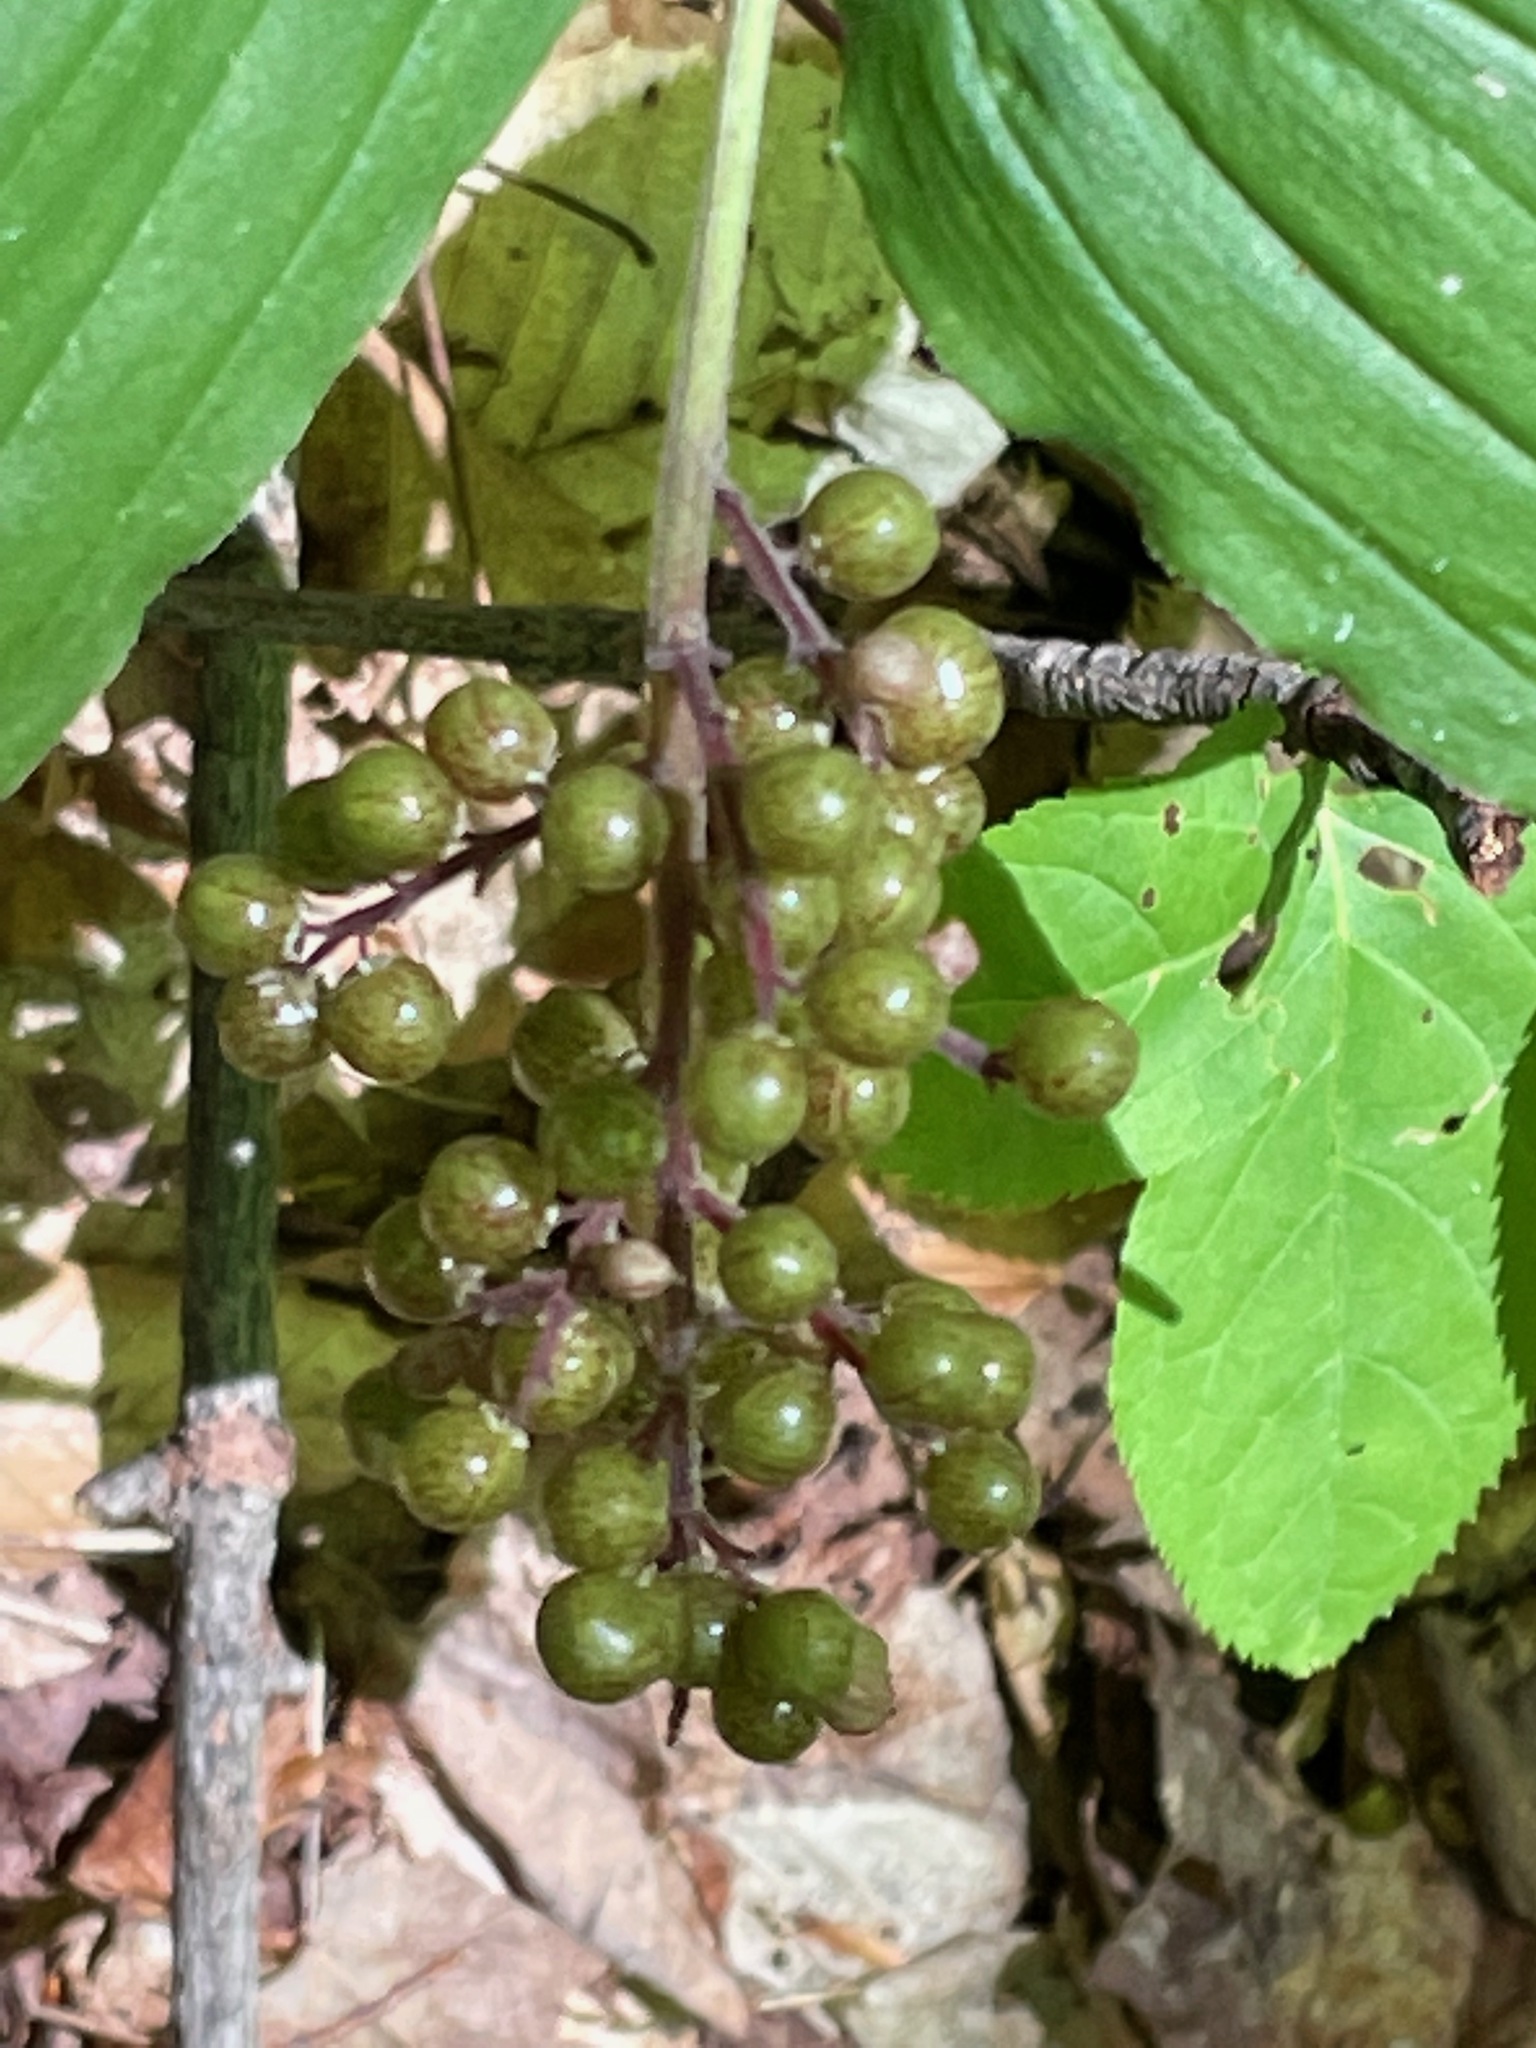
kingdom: Plantae
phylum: Tracheophyta
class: Liliopsida
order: Asparagales
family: Asparagaceae
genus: Maianthemum
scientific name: Maianthemum racemosum
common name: False spikenard
